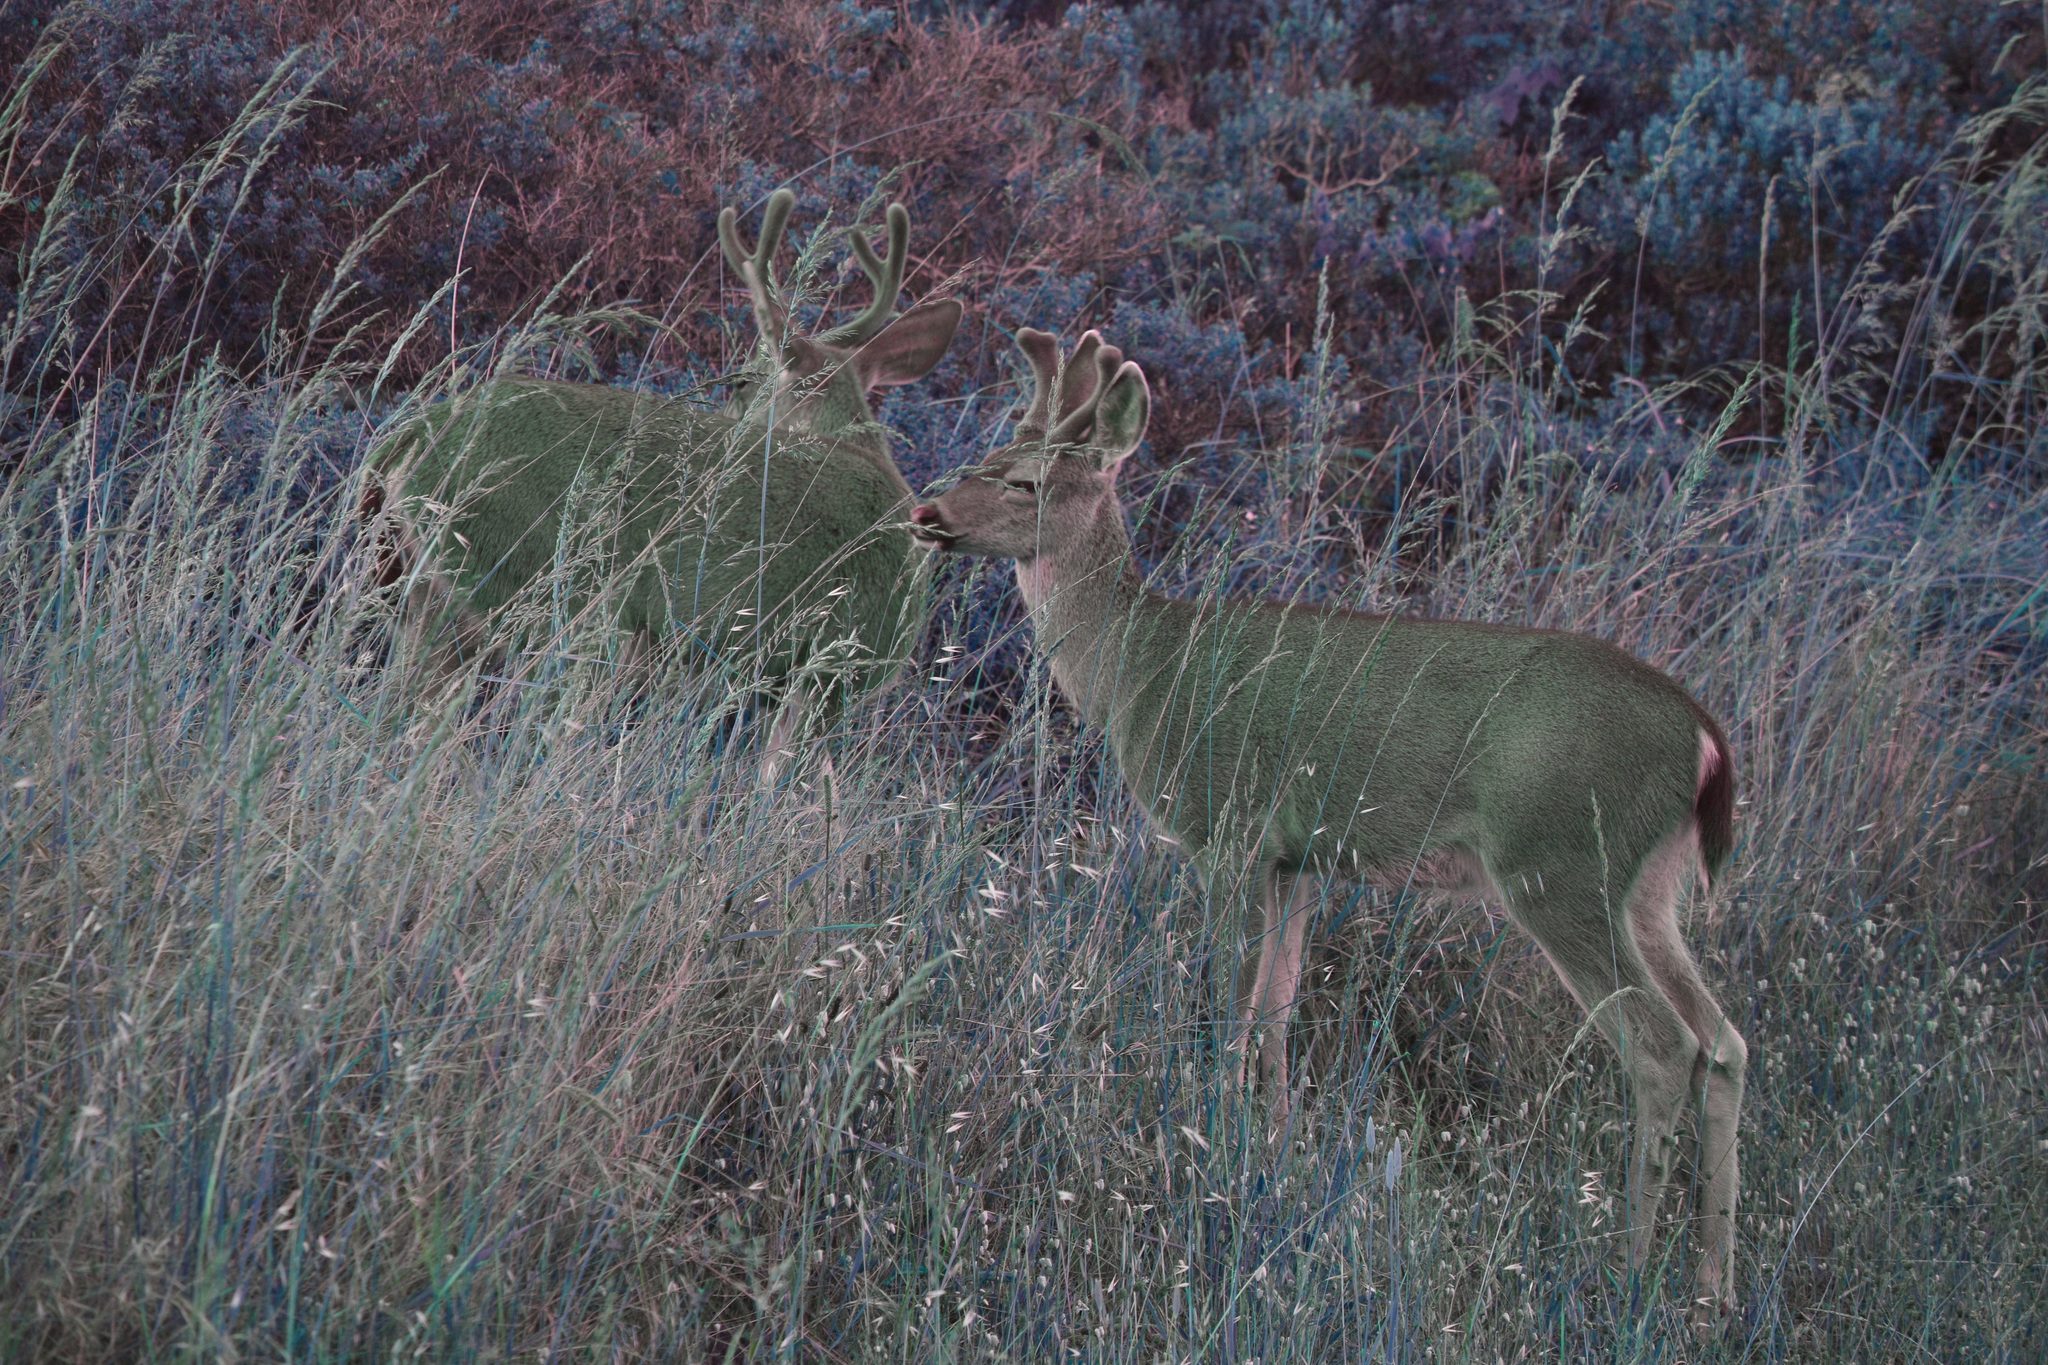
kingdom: Animalia
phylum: Chordata
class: Mammalia
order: Artiodactyla
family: Cervidae
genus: Odocoileus
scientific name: Odocoileus hemionus
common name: Mule deer
